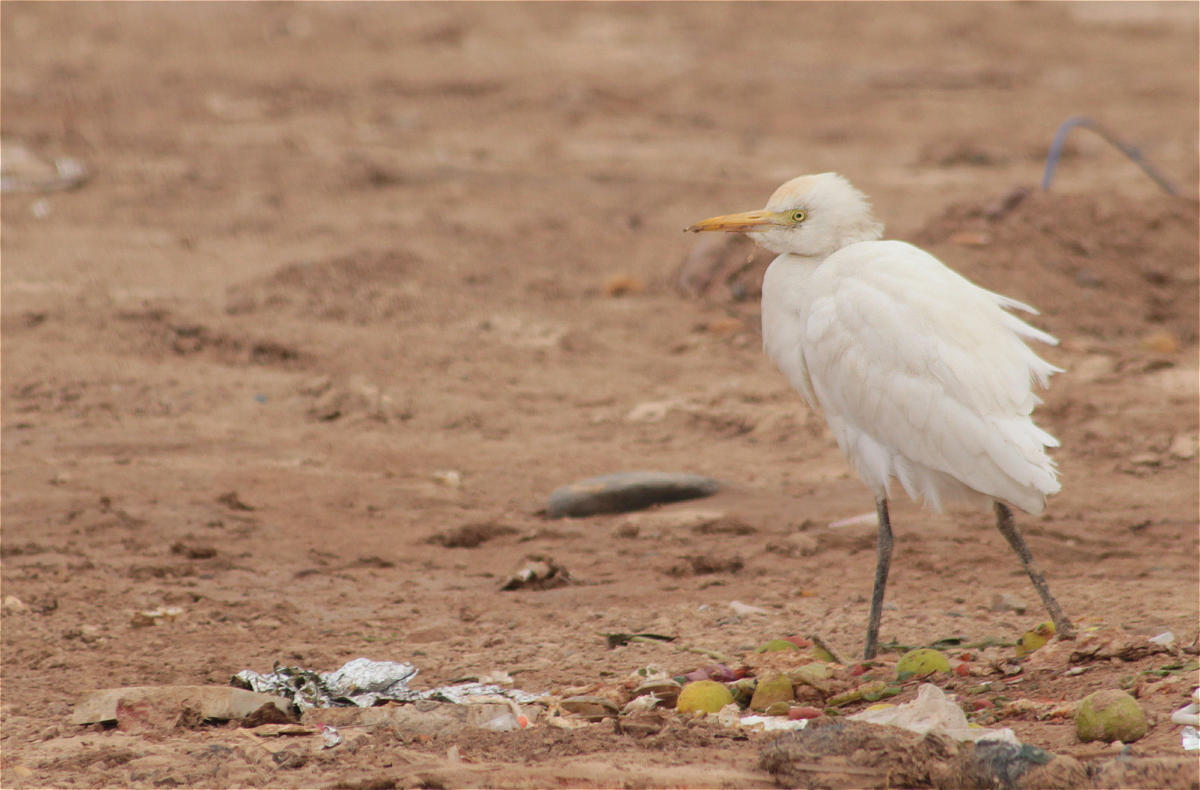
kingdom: Animalia
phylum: Chordata
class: Aves
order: Pelecaniformes
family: Ardeidae
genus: Bubulcus
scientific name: Bubulcus ibis
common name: Cattle egret
